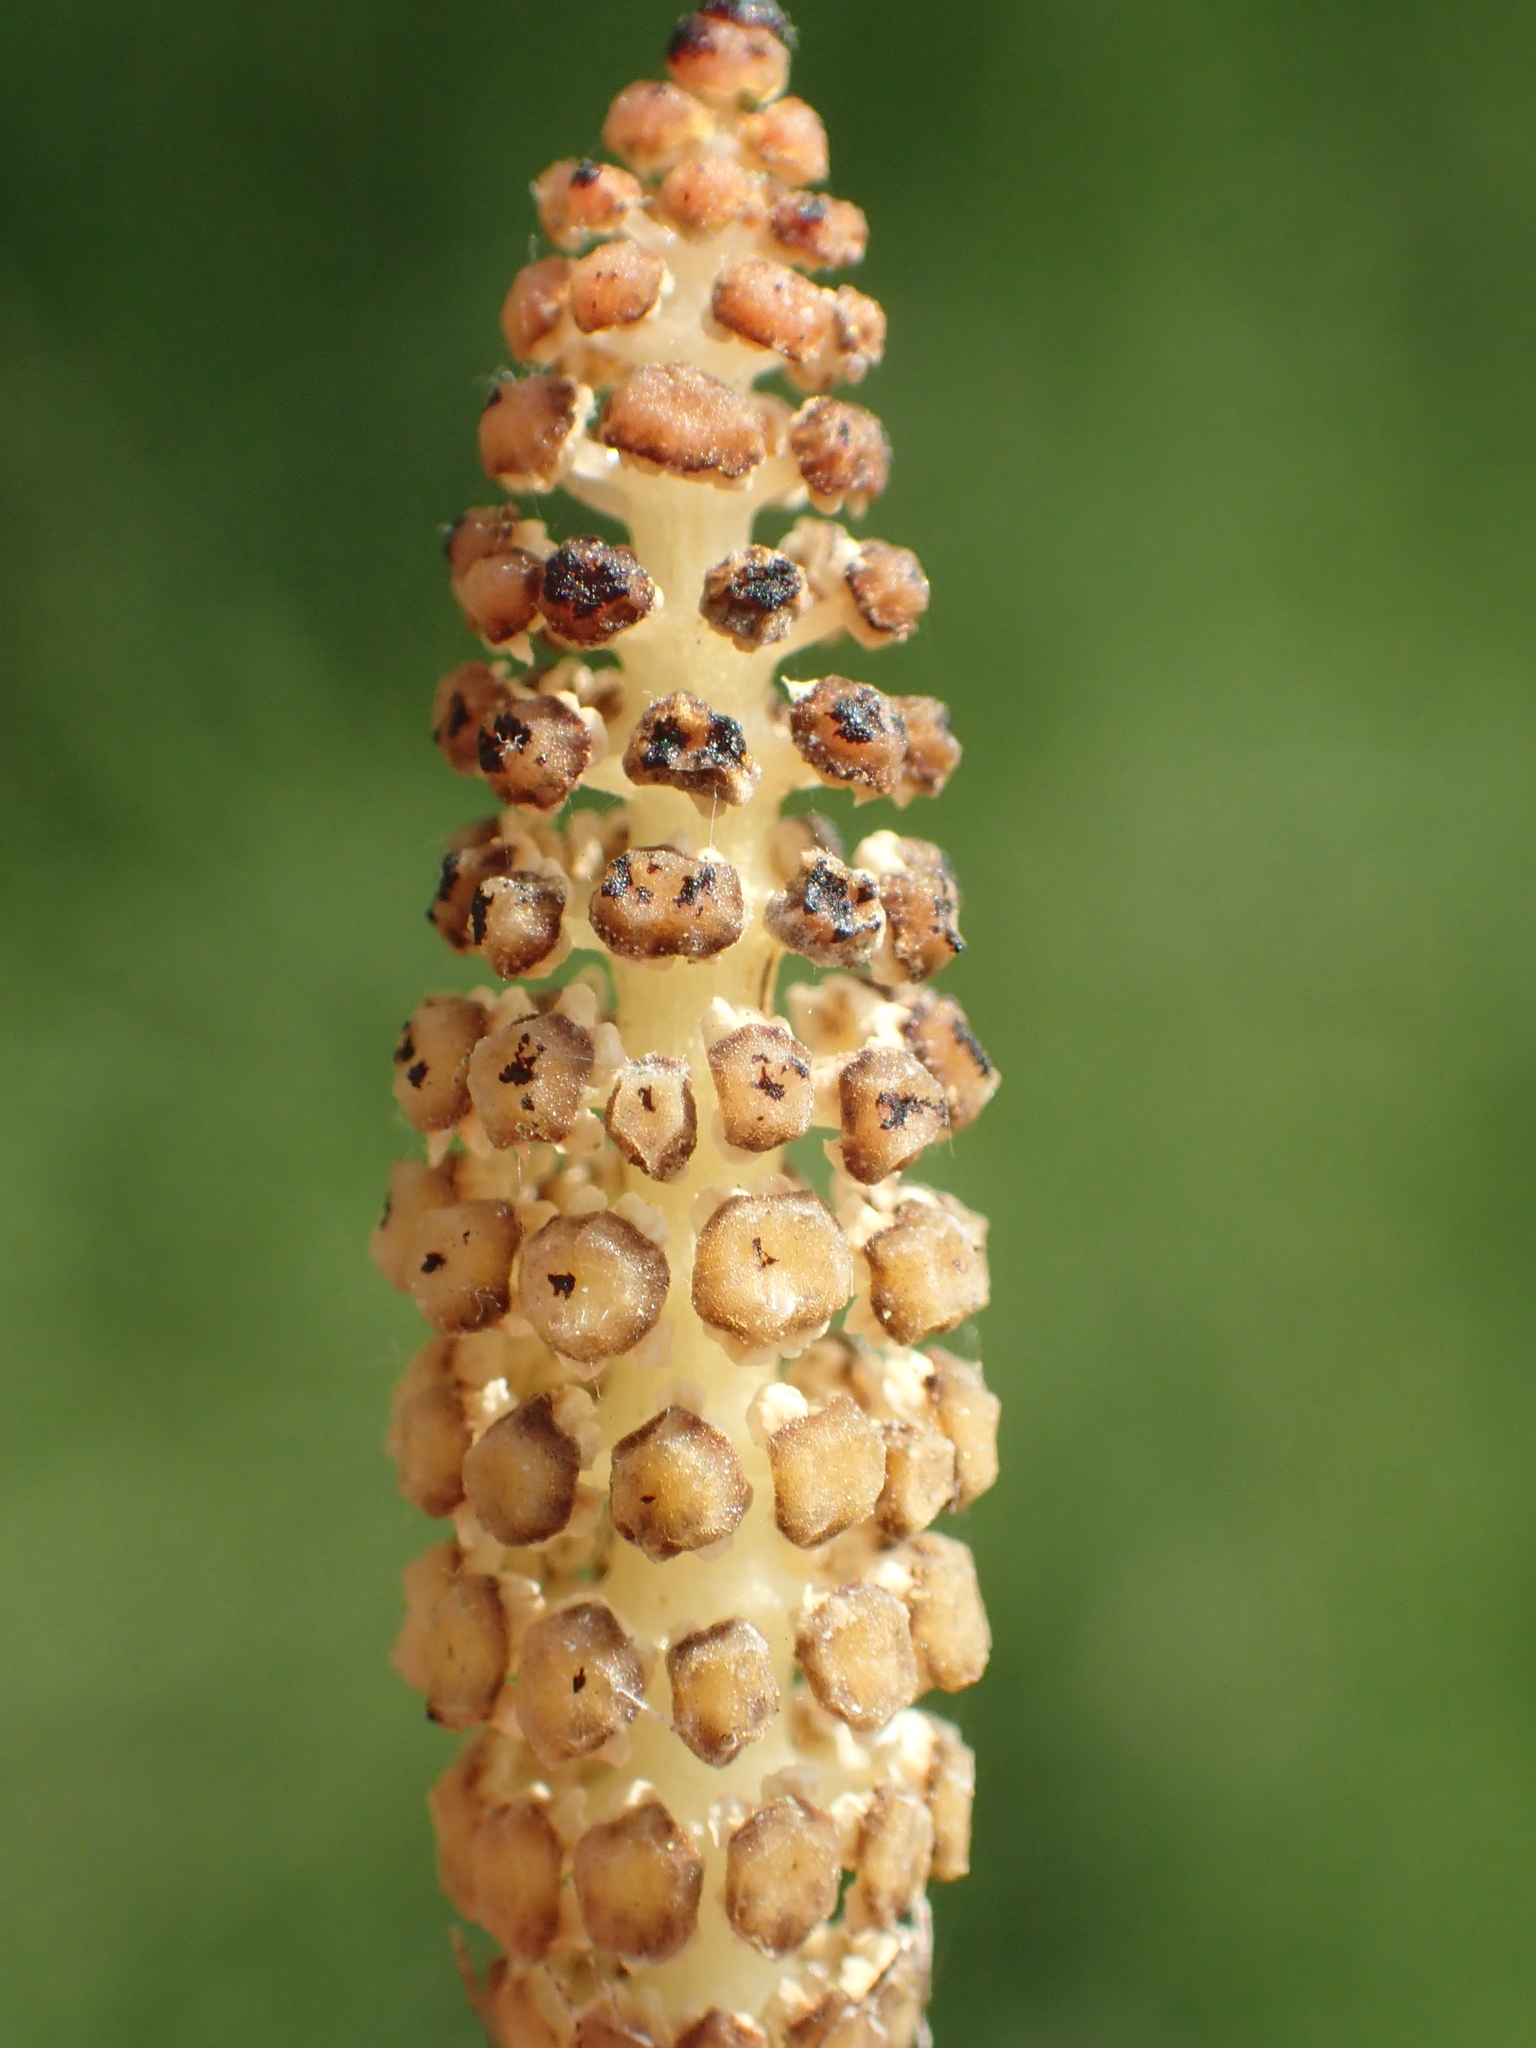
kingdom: Plantae
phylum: Tracheophyta
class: Polypodiopsida
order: Equisetales
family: Equisetaceae
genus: Equisetum
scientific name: Equisetum ramosissimum
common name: Branched horsetail
